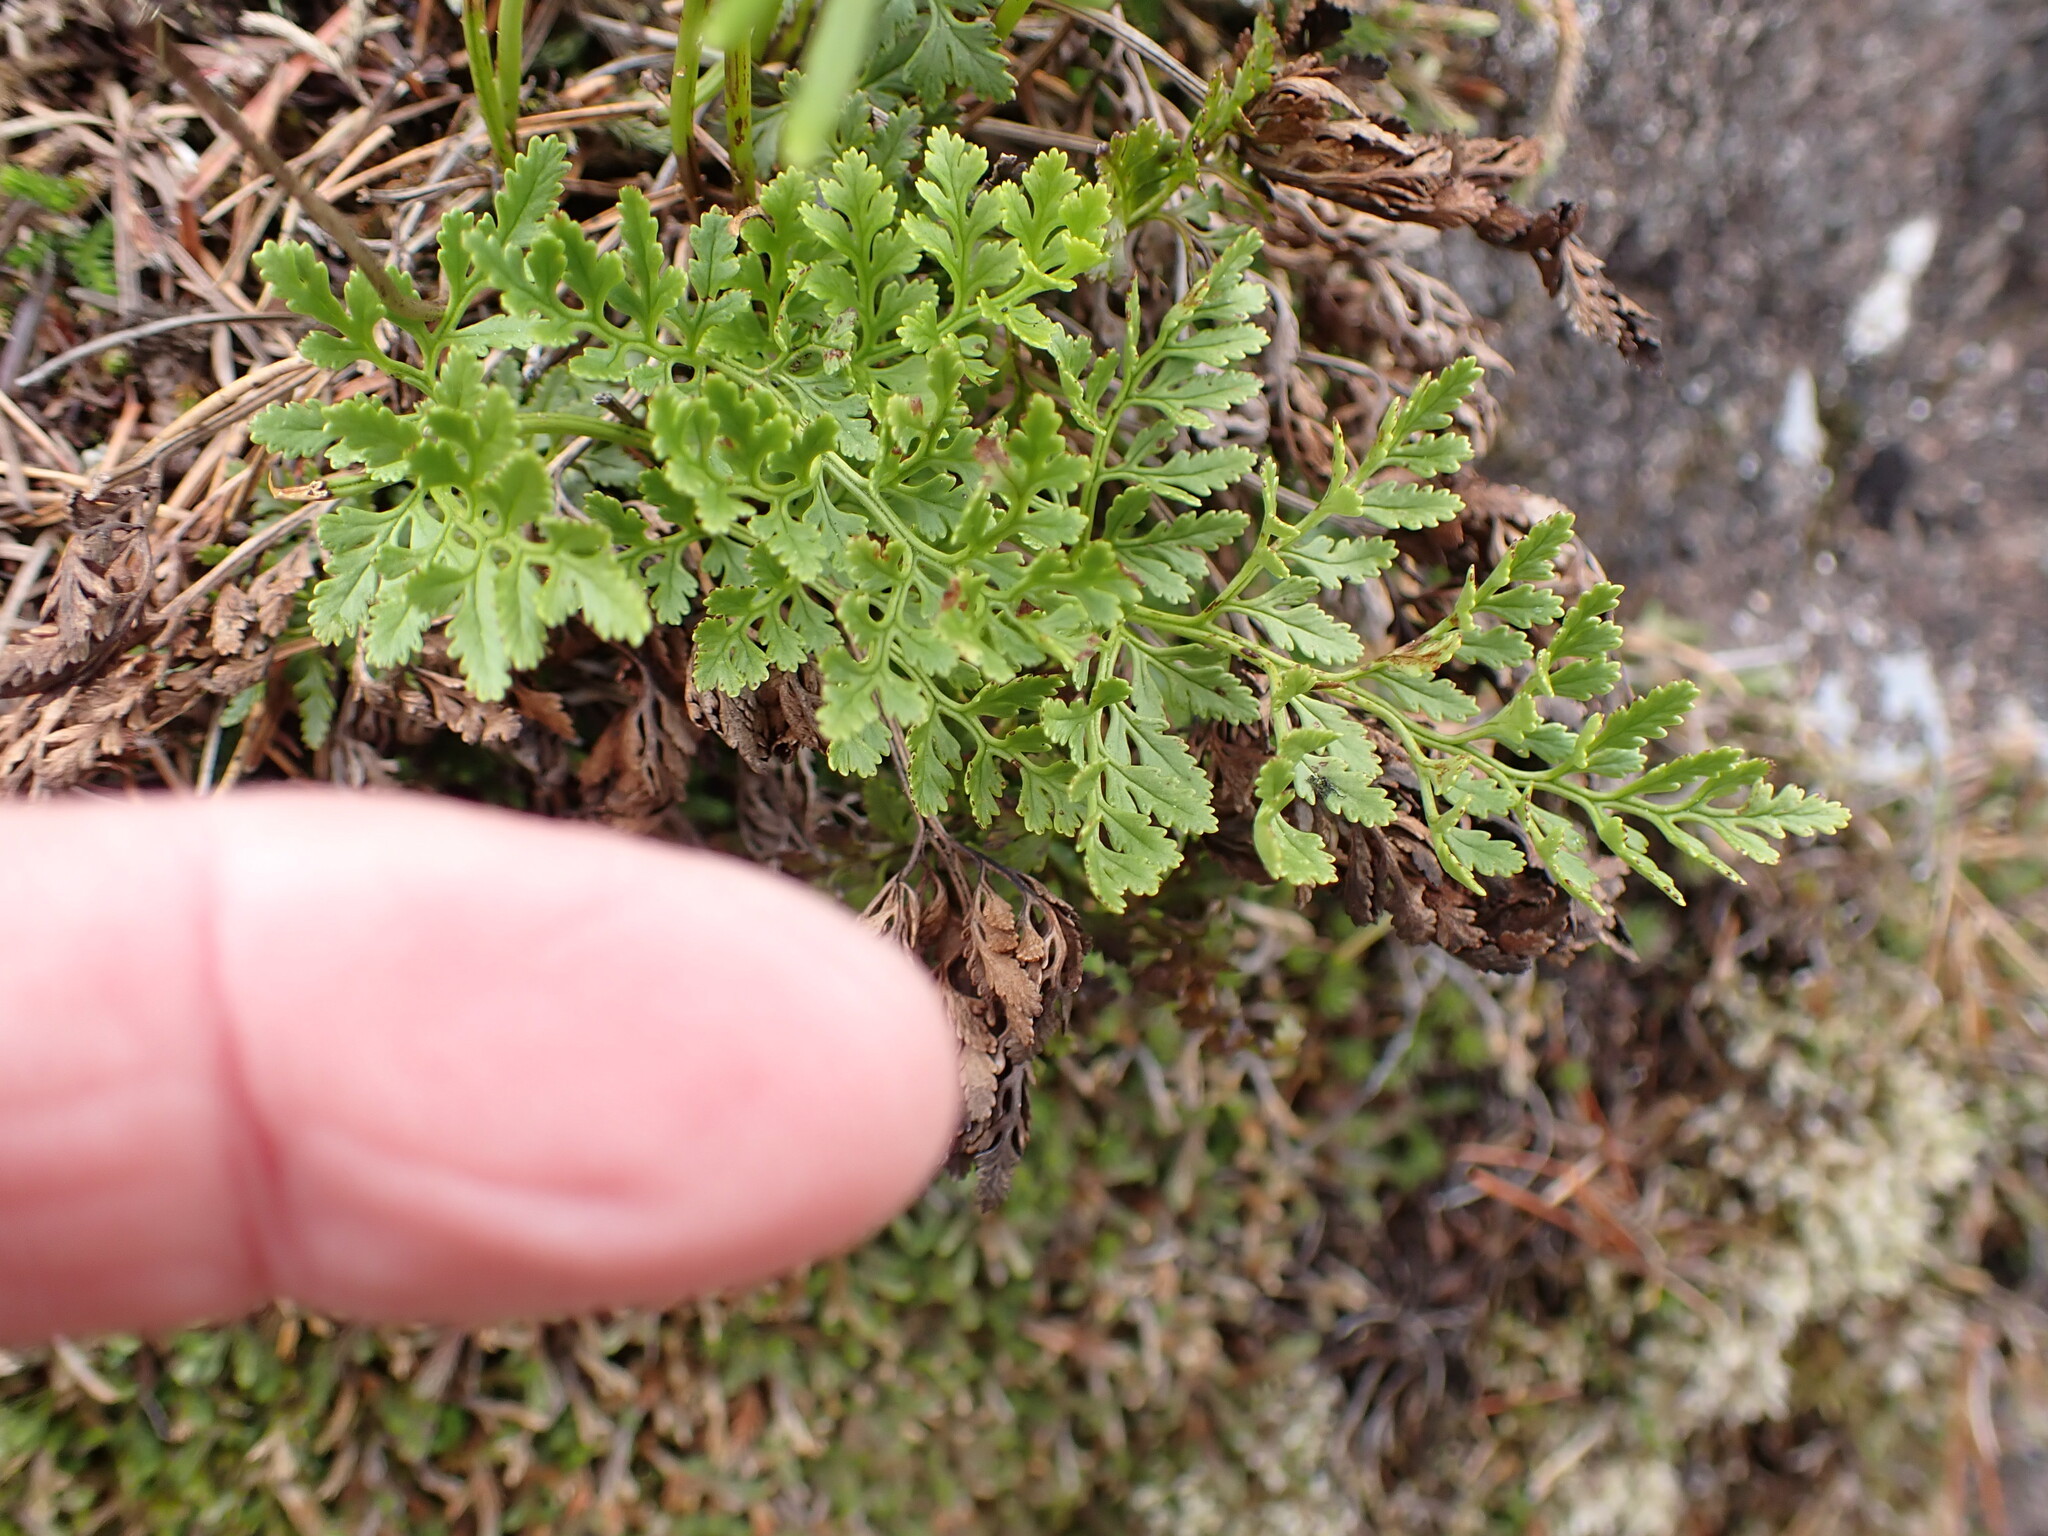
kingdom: Plantae
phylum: Tracheophyta
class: Polypodiopsida
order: Polypodiales
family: Pteridaceae
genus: Cryptogramma
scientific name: Cryptogramma acrostichoides
